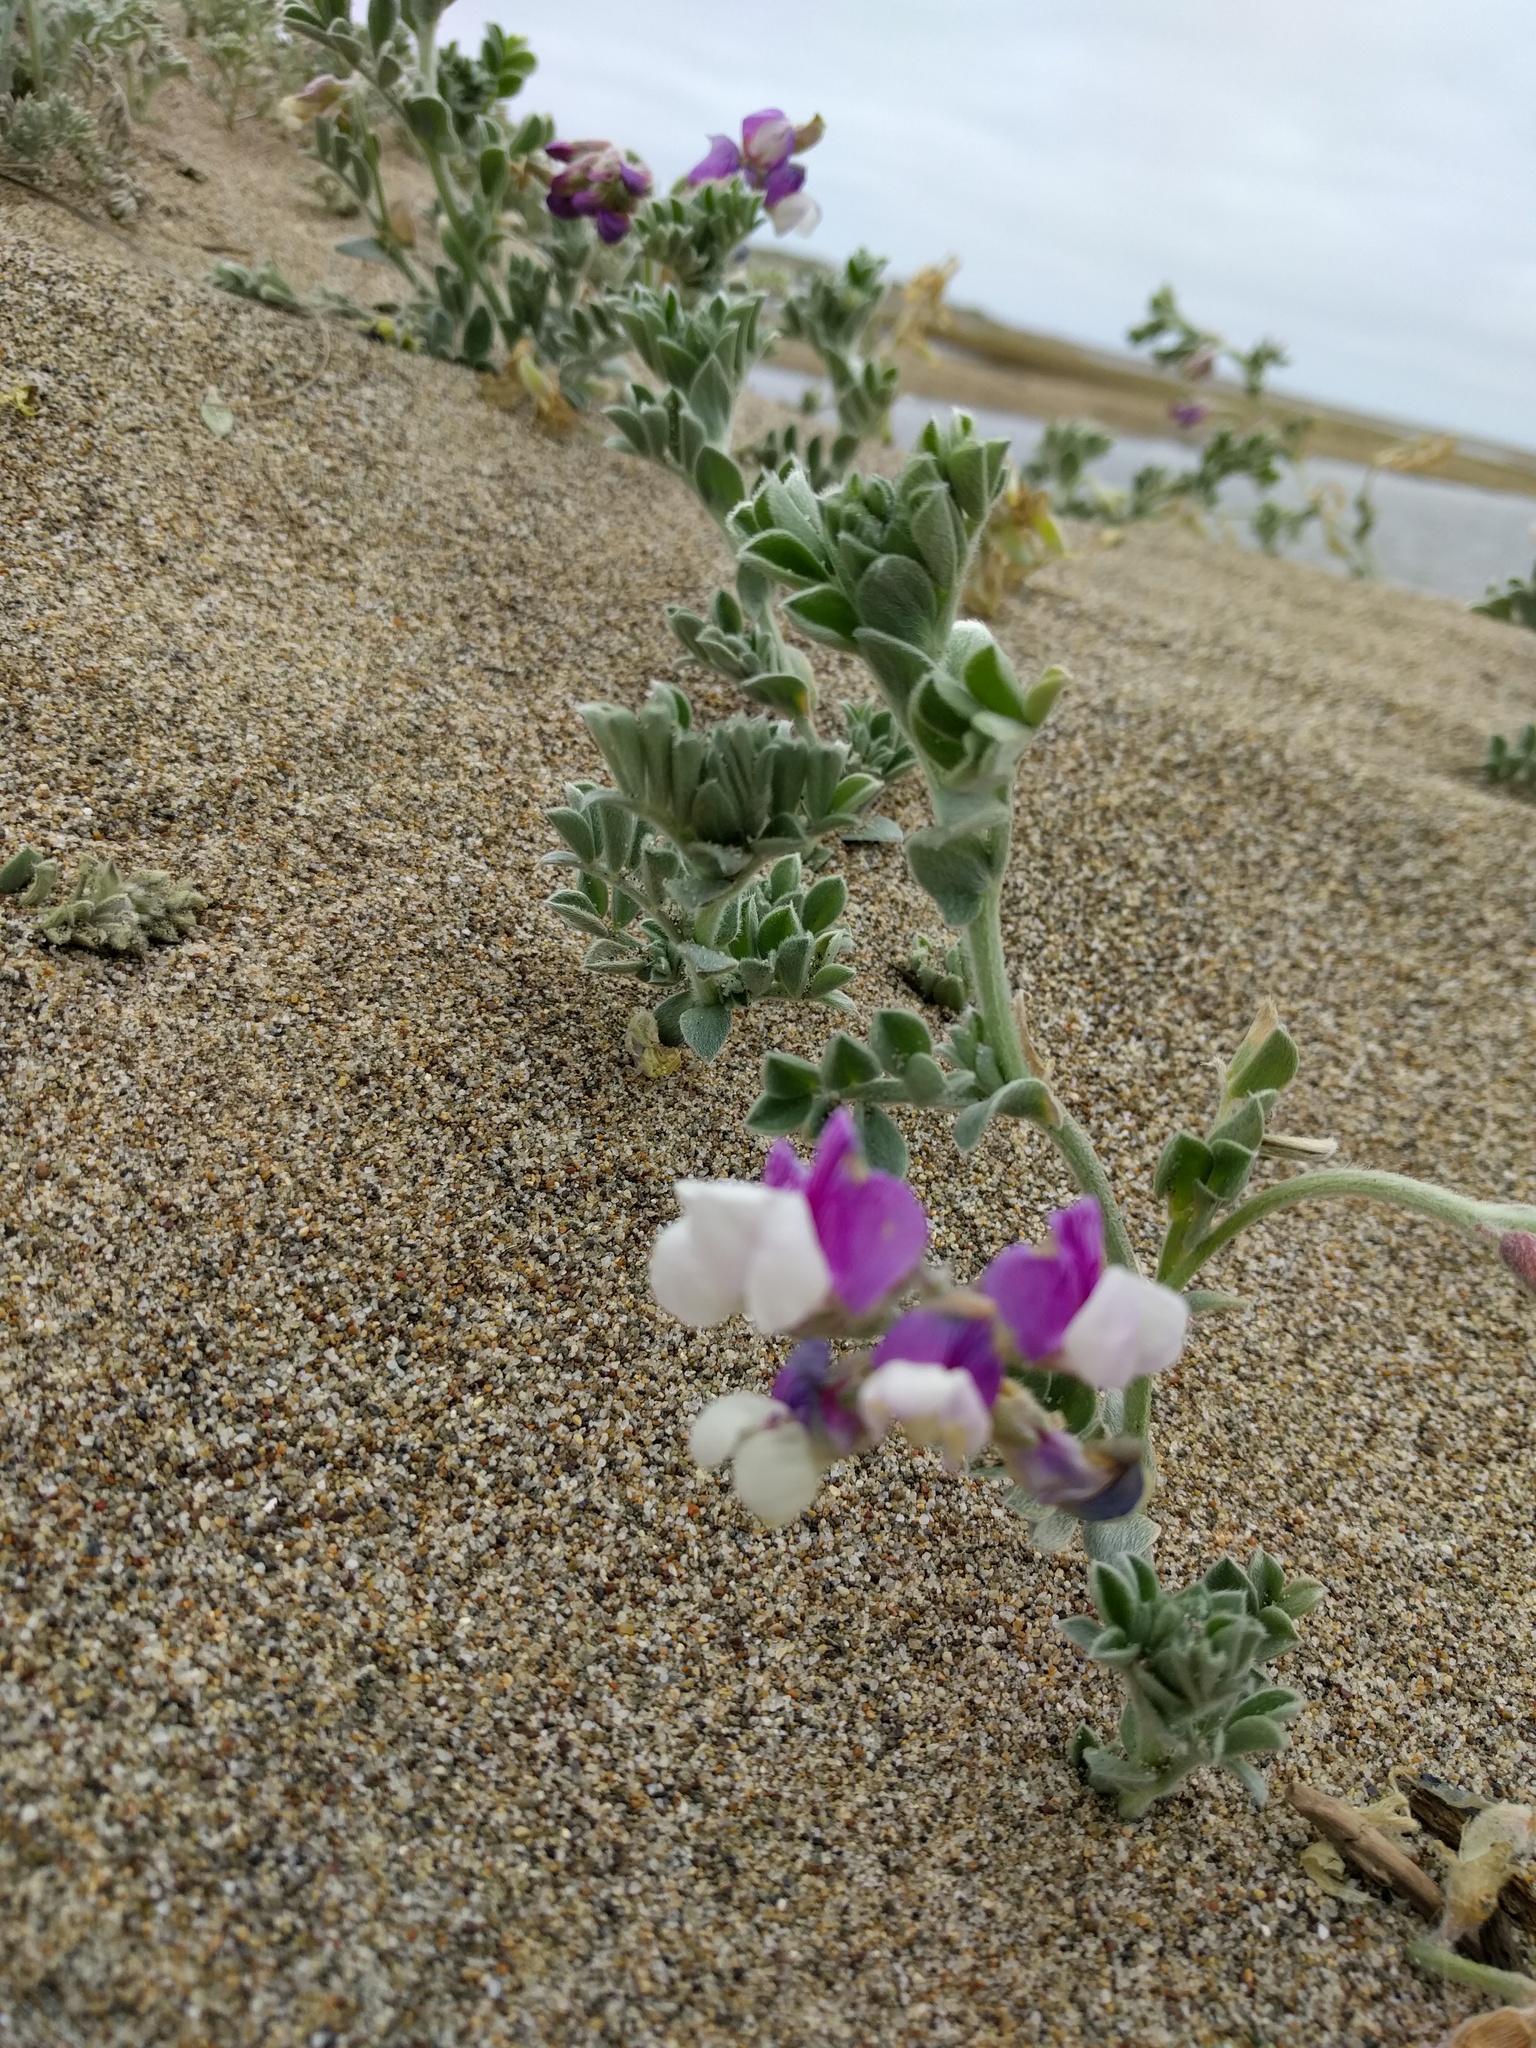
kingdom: Plantae
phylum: Tracheophyta
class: Magnoliopsida
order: Fabales
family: Fabaceae
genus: Lathyrus
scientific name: Lathyrus littoralis
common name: Dune sweet pea
